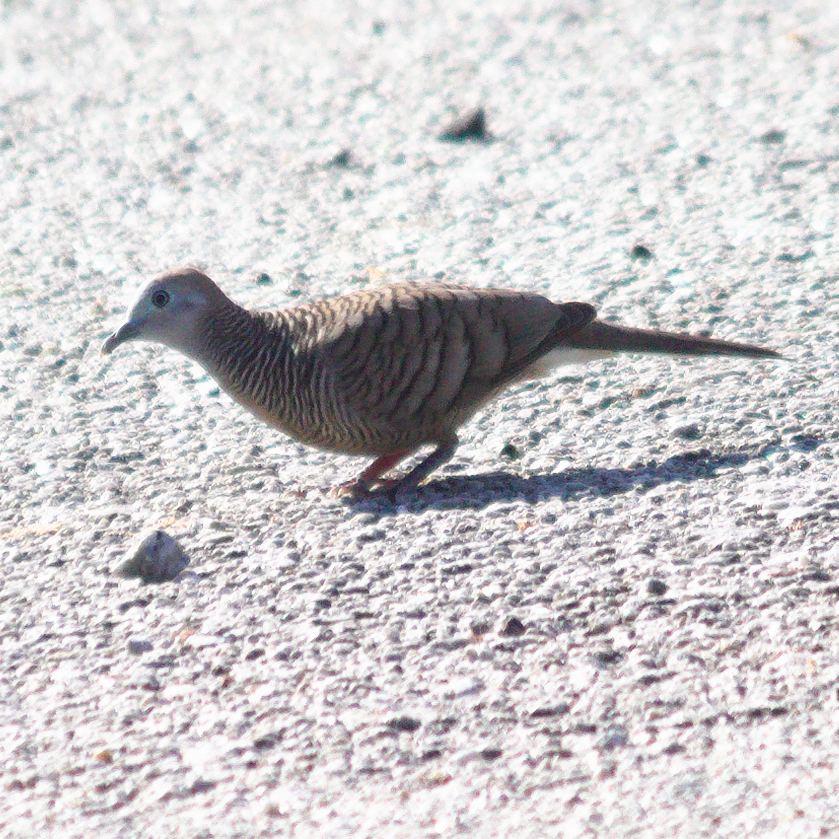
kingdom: Animalia
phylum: Chordata
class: Aves
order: Columbiformes
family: Columbidae
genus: Geopelia
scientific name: Geopelia striata
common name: Zebra dove
